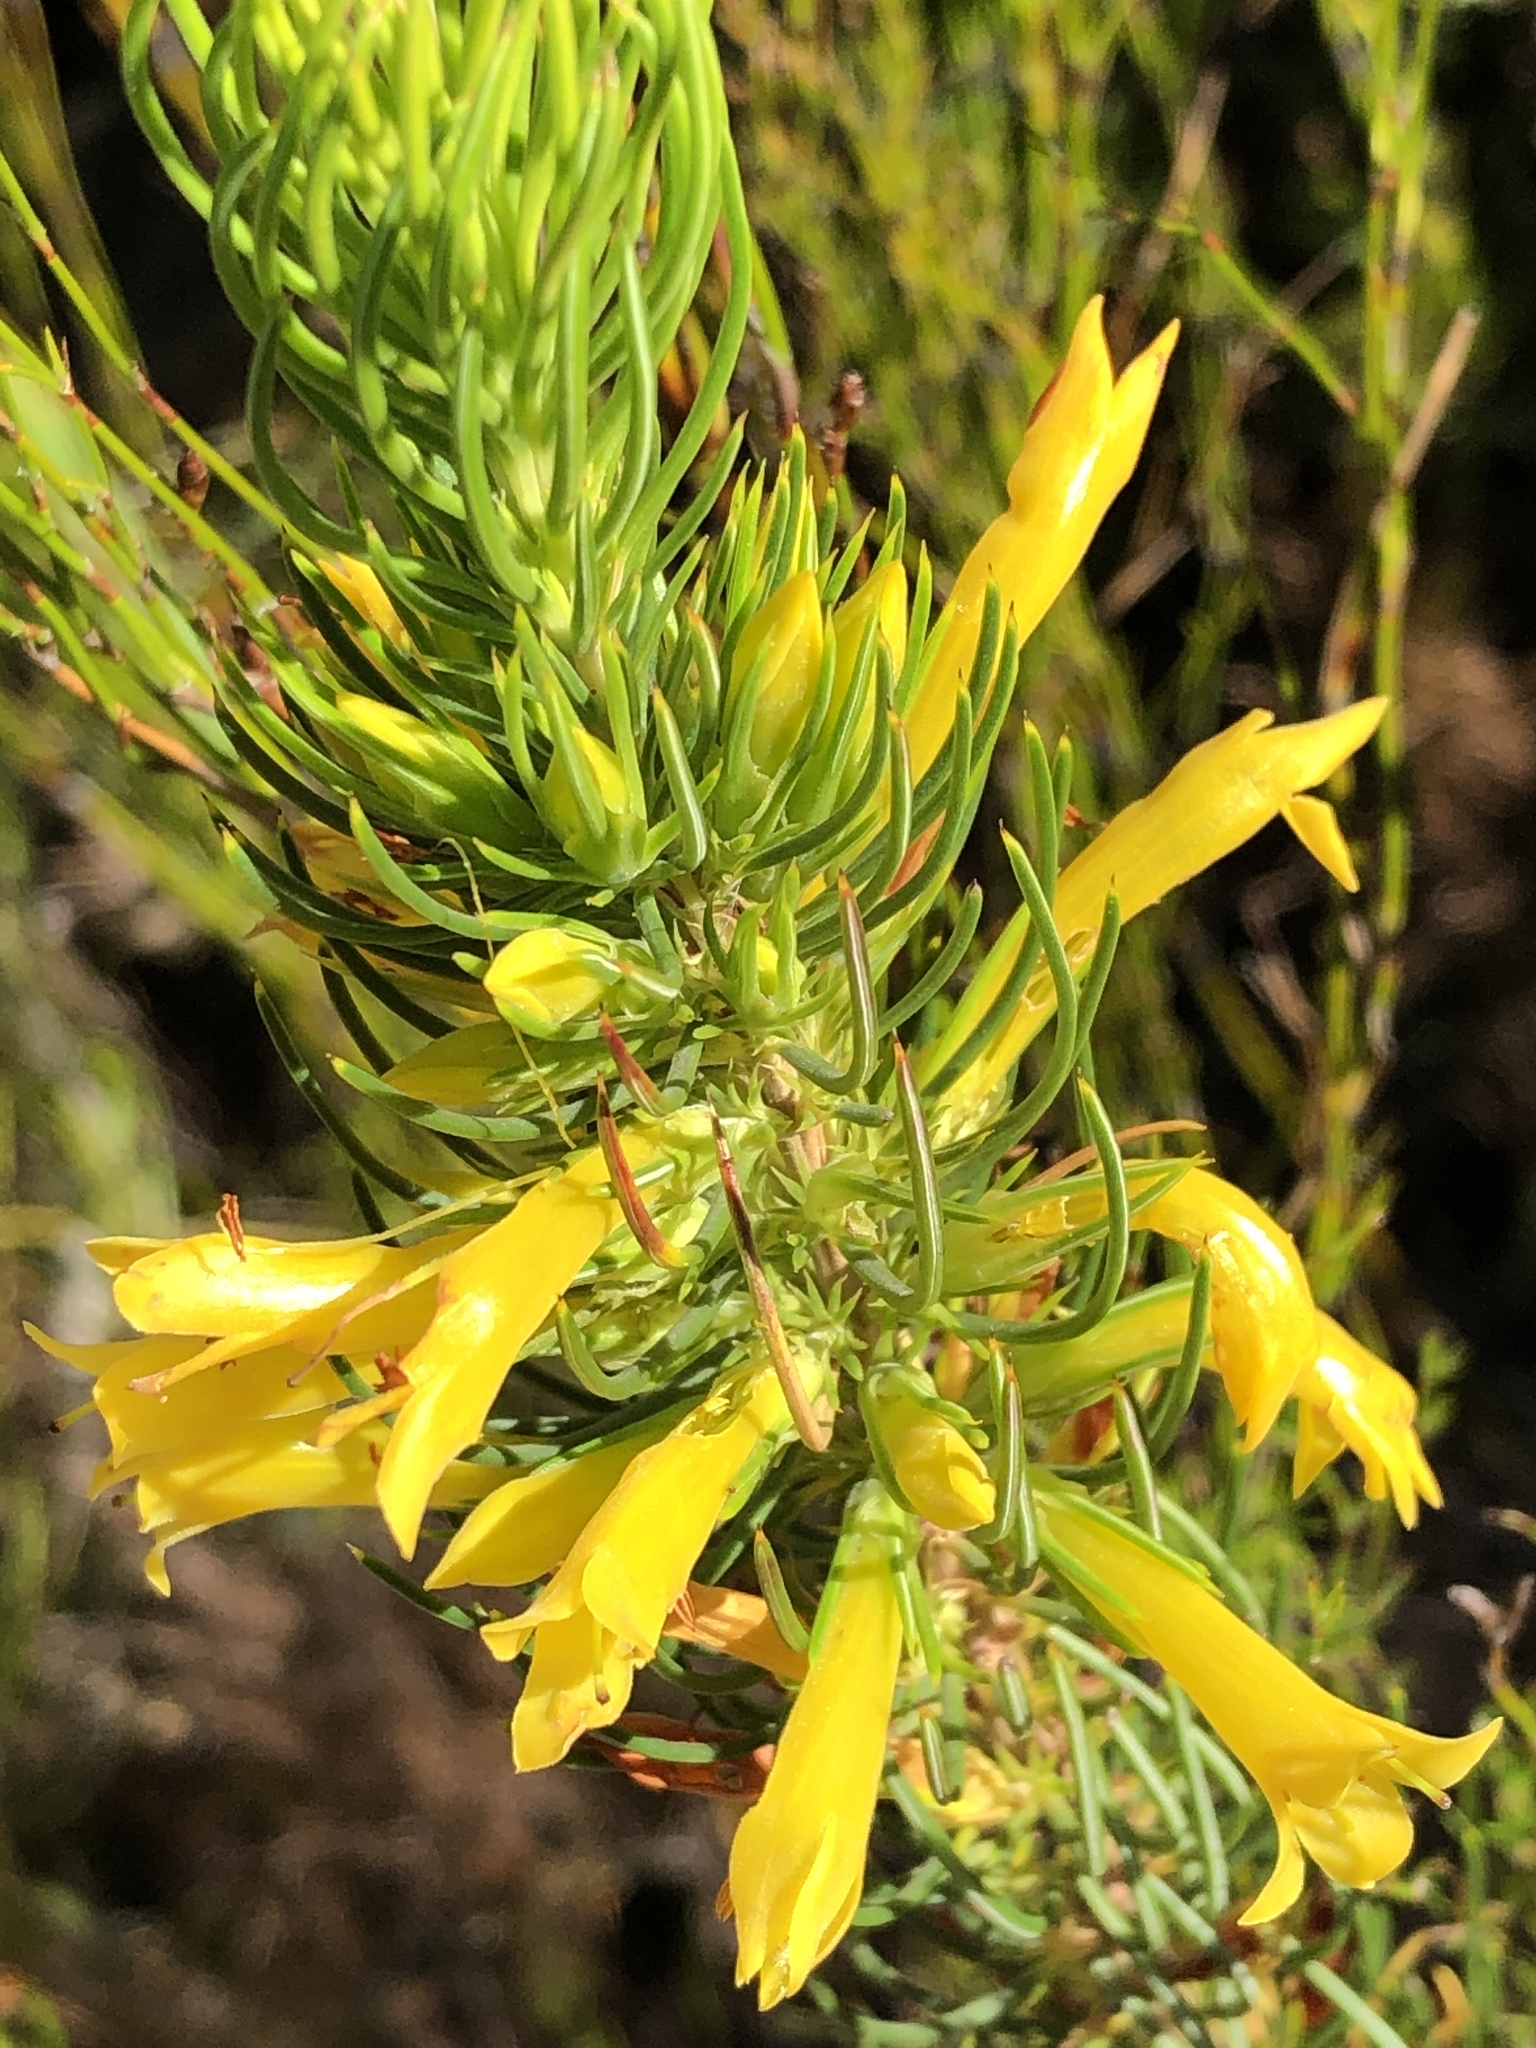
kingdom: Plantae
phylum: Tracheophyta
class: Magnoliopsida
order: Ericales
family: Ericaceae
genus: Erica
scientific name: Erica grandiflora
